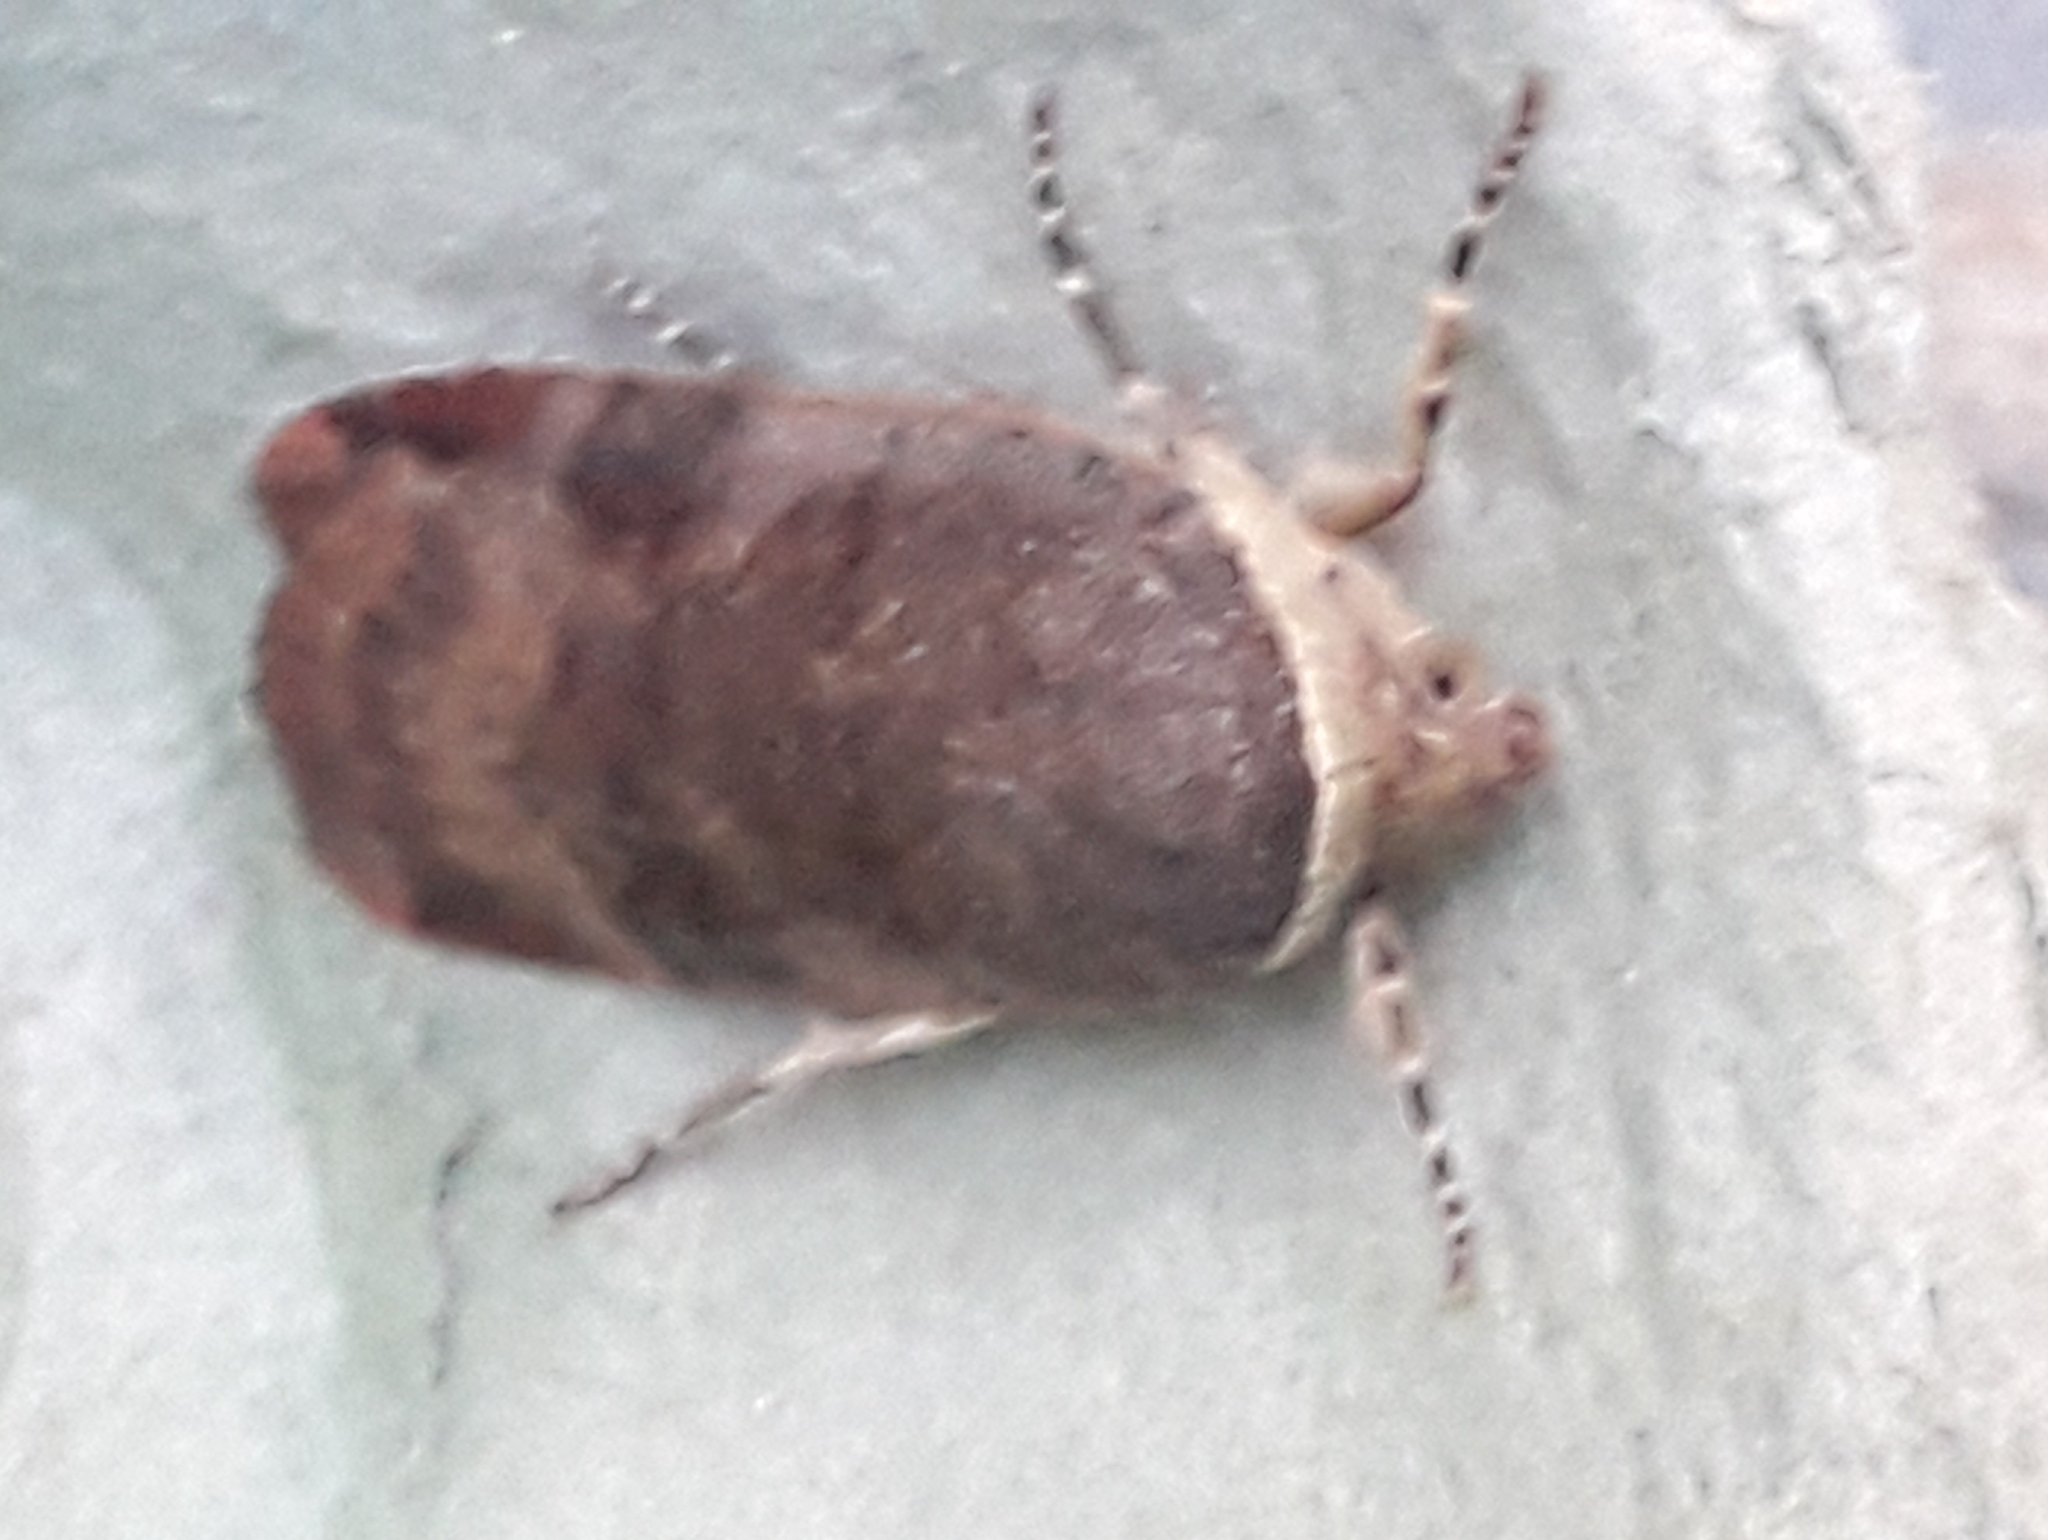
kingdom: Animalia
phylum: Arthropoda
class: Insecta
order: Lepidoptera
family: Noctuidae
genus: Noctua
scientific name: Noctua janthe
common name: Lesser broad-bordered yellow underwing
